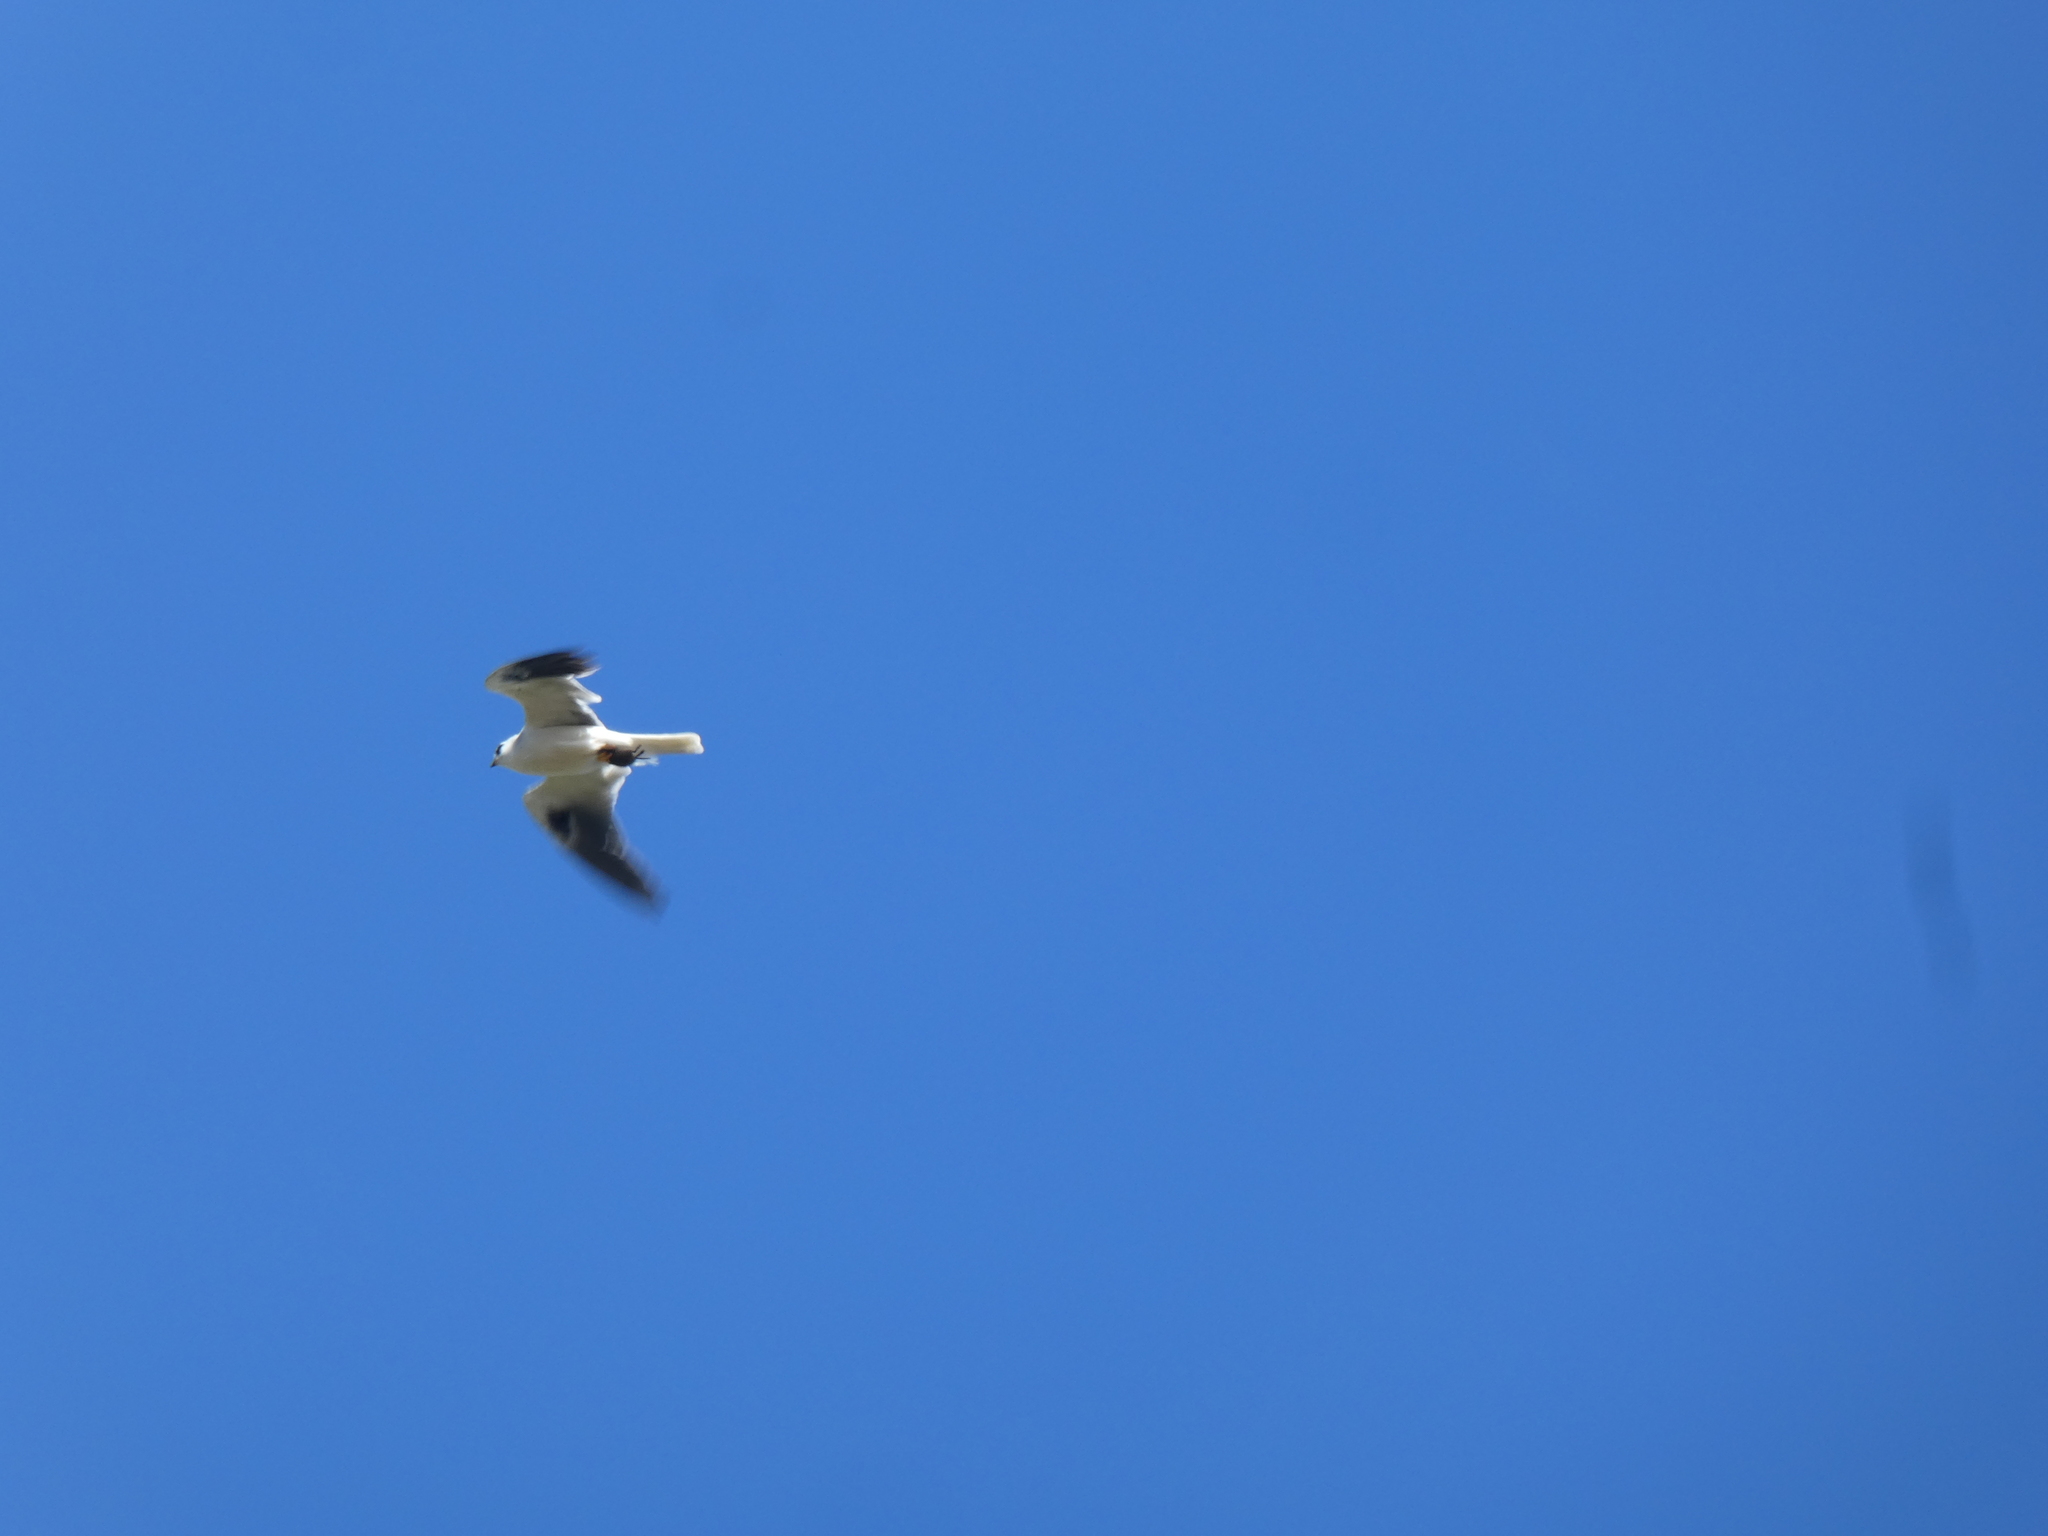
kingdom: Animalia
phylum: Chordata
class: Aves
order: Accipitriformes
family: Accipitridae
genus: Elanus
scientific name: Elanus leucurus
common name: White-tailed kite
